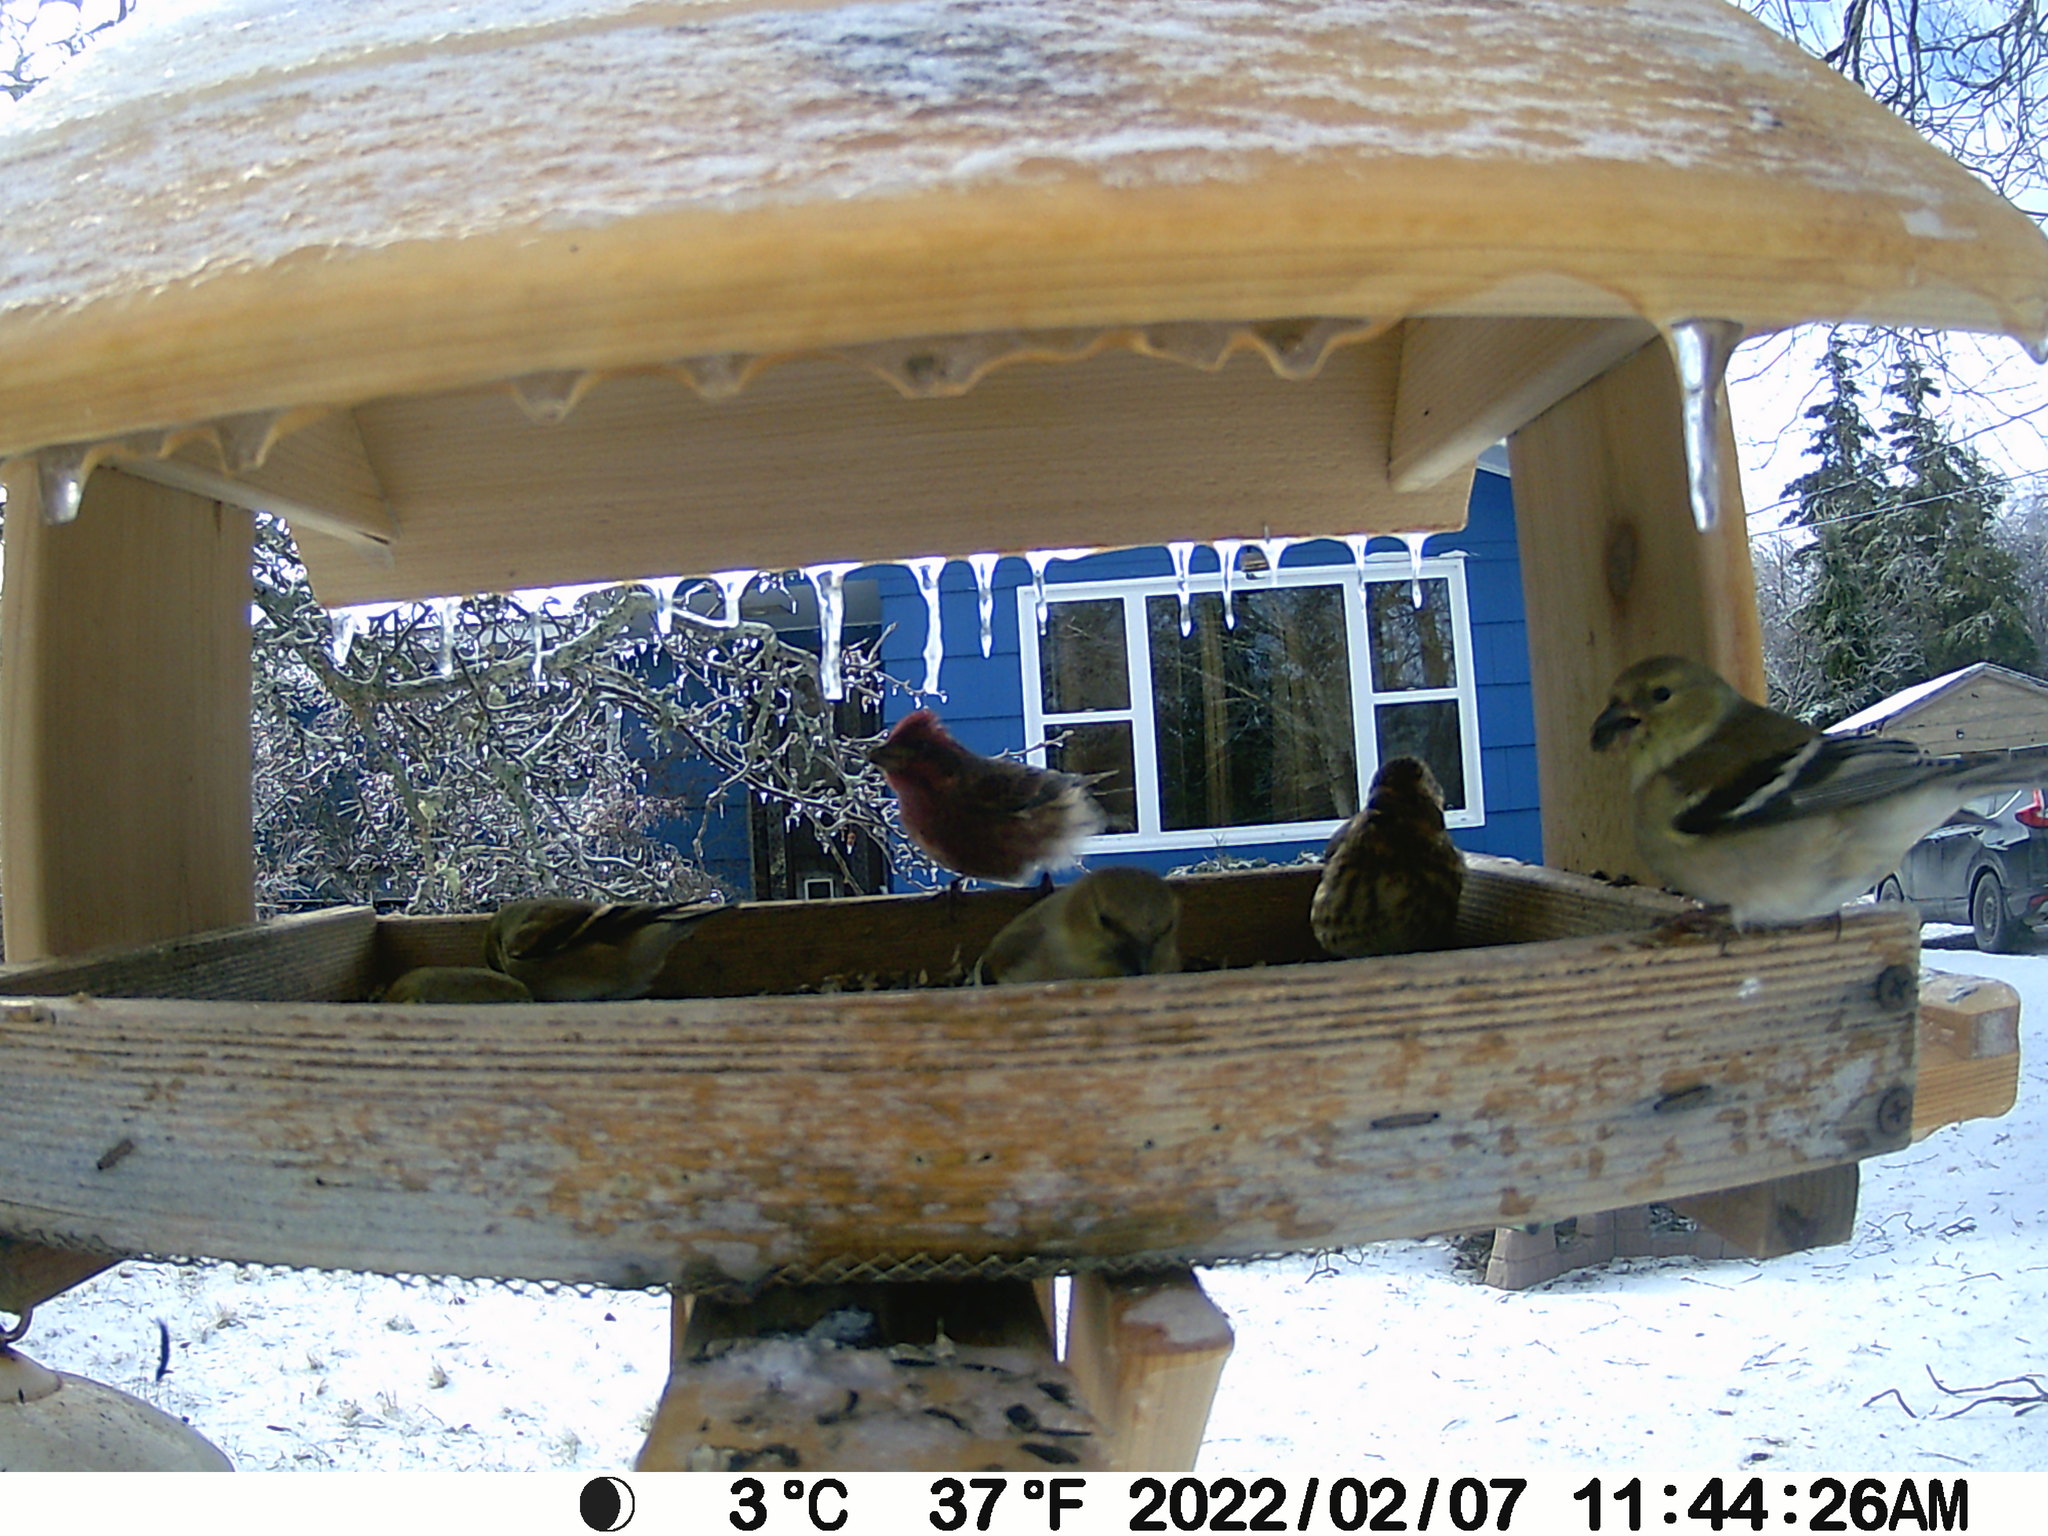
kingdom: Animalia
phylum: Chordata
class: Aves
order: Passeriformes
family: Fringillidae
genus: Haemorhous
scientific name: Haemorhous purpureus
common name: Purple finch
